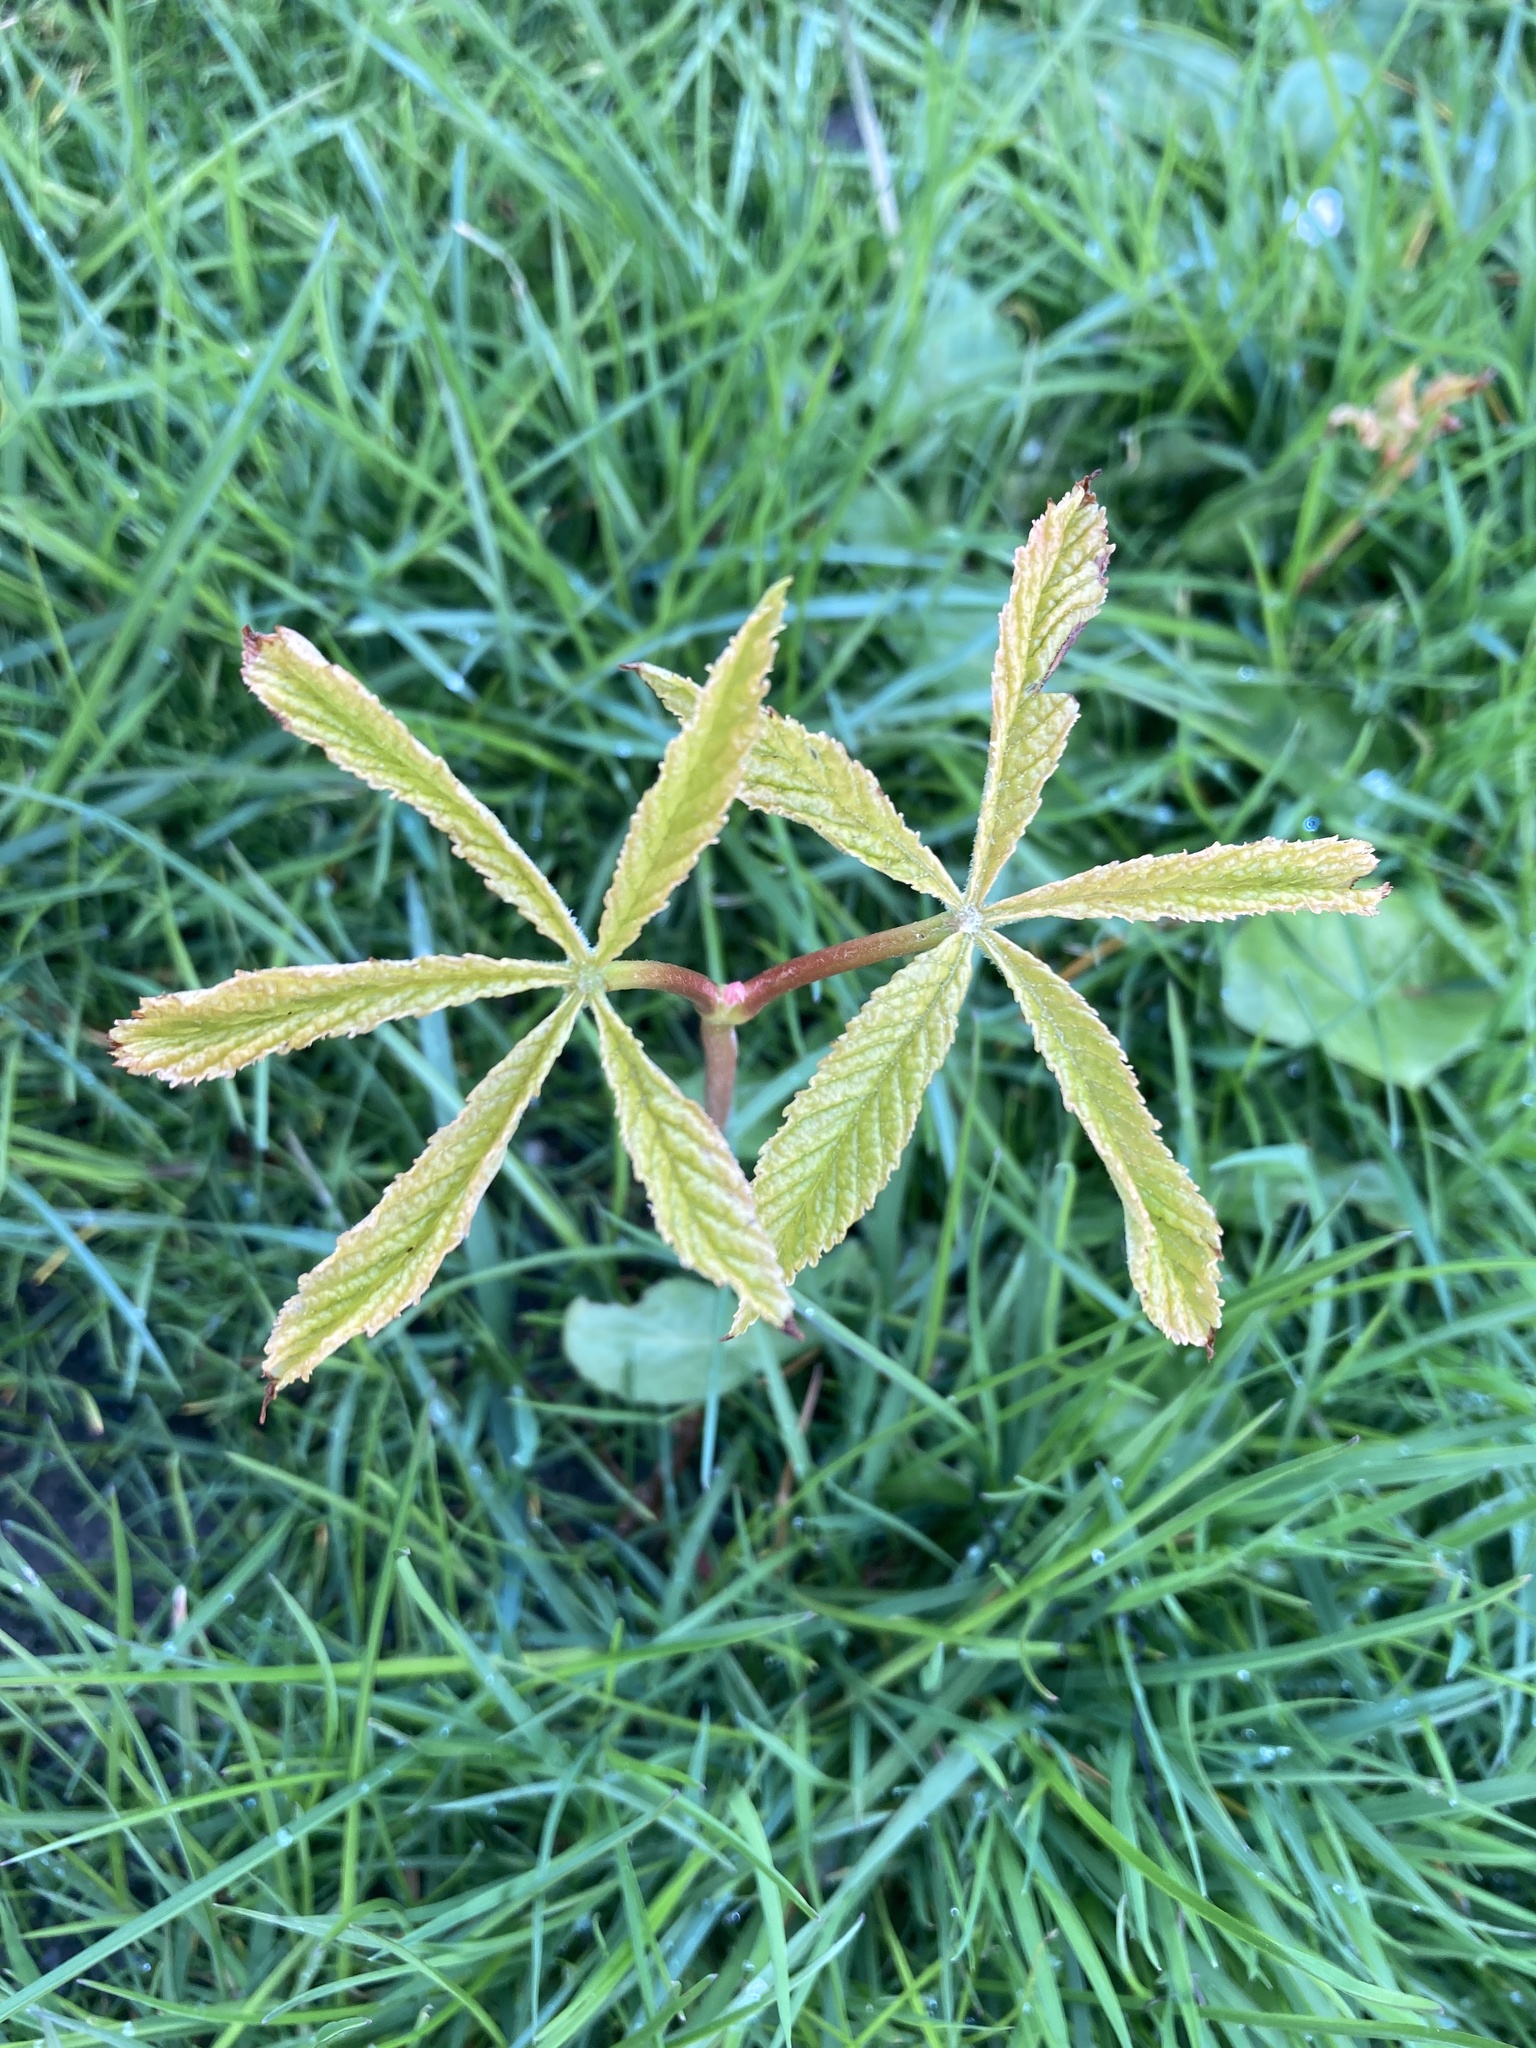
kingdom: Plantae
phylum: Tracheophyta
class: Magnoliopsida
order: Sapindales
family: Sapindaceae
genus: Aesculus
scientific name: Aesculus hippocastanum
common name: Horse-chestnut
